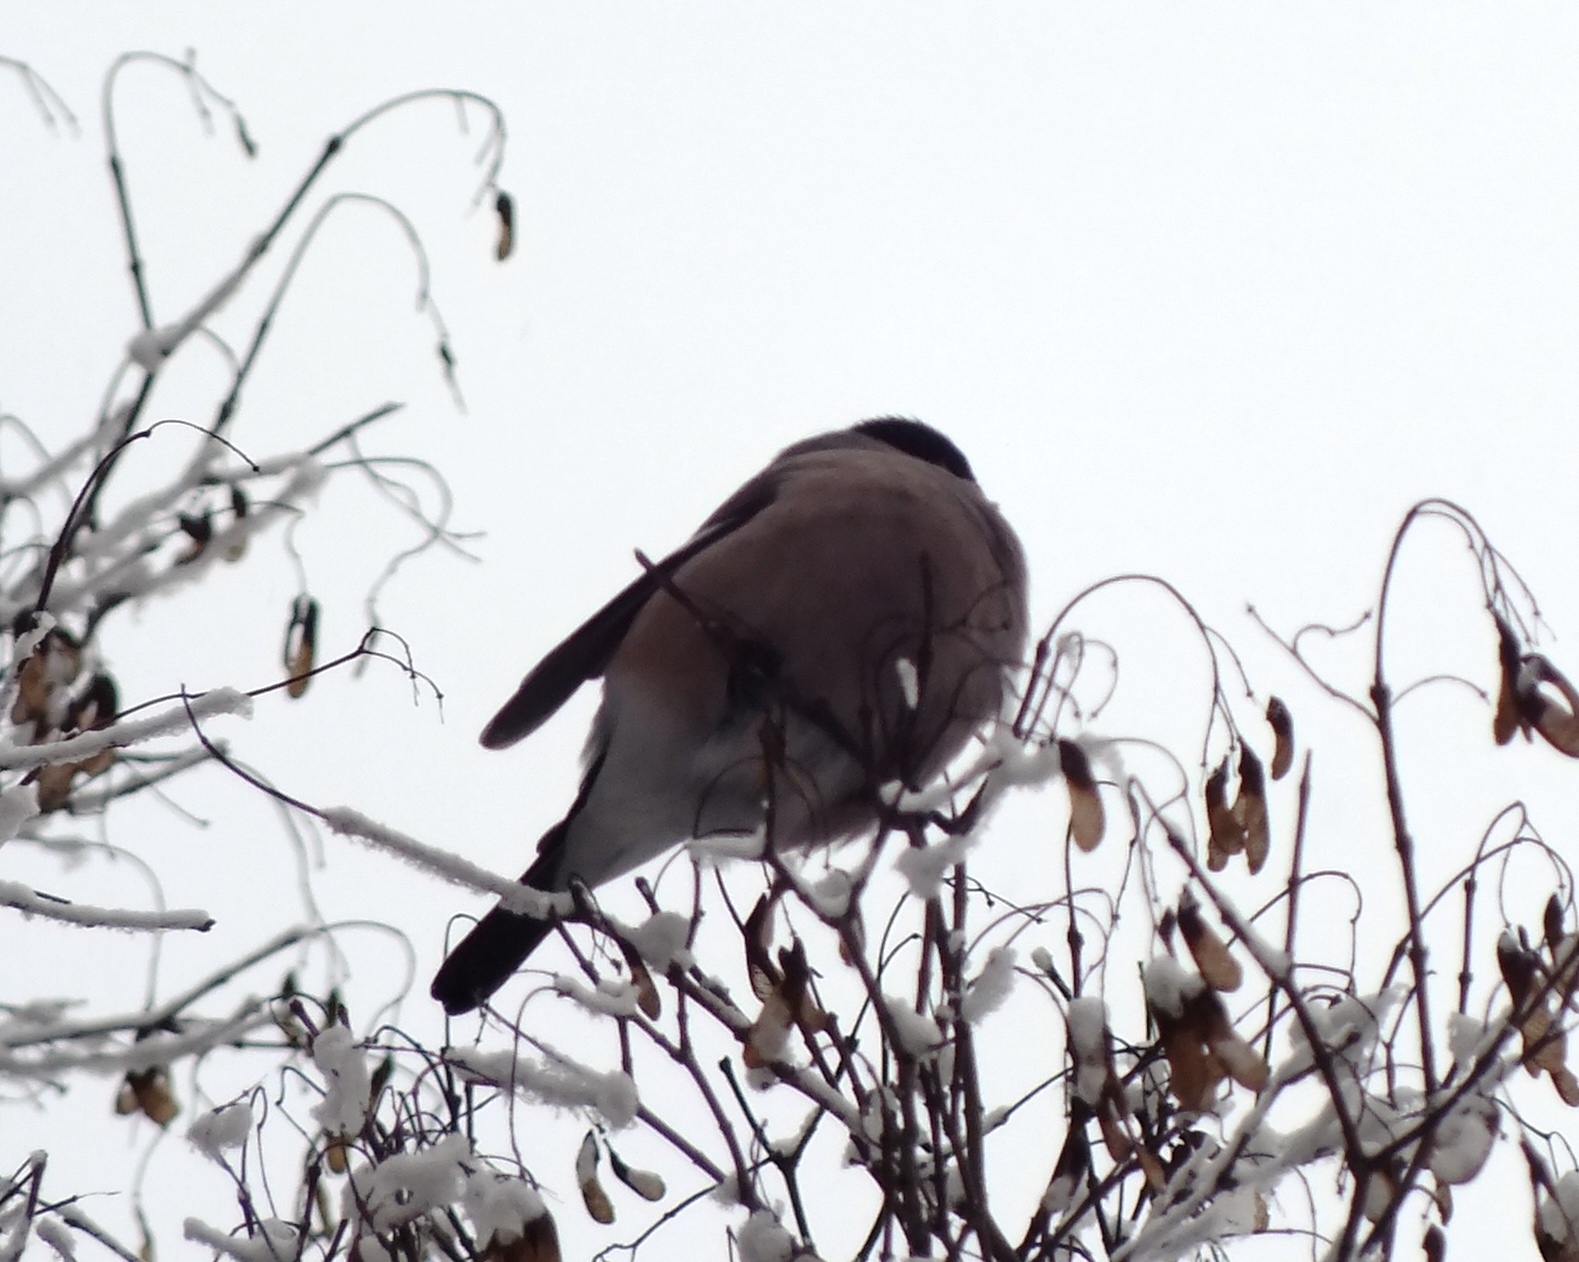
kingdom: Animalia
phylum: Chordata
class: Aves
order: Passeriformes
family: Fringillidae
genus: Pyrrhula
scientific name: Pyrrhula pyrrhula
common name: Eurasian bullfinch
